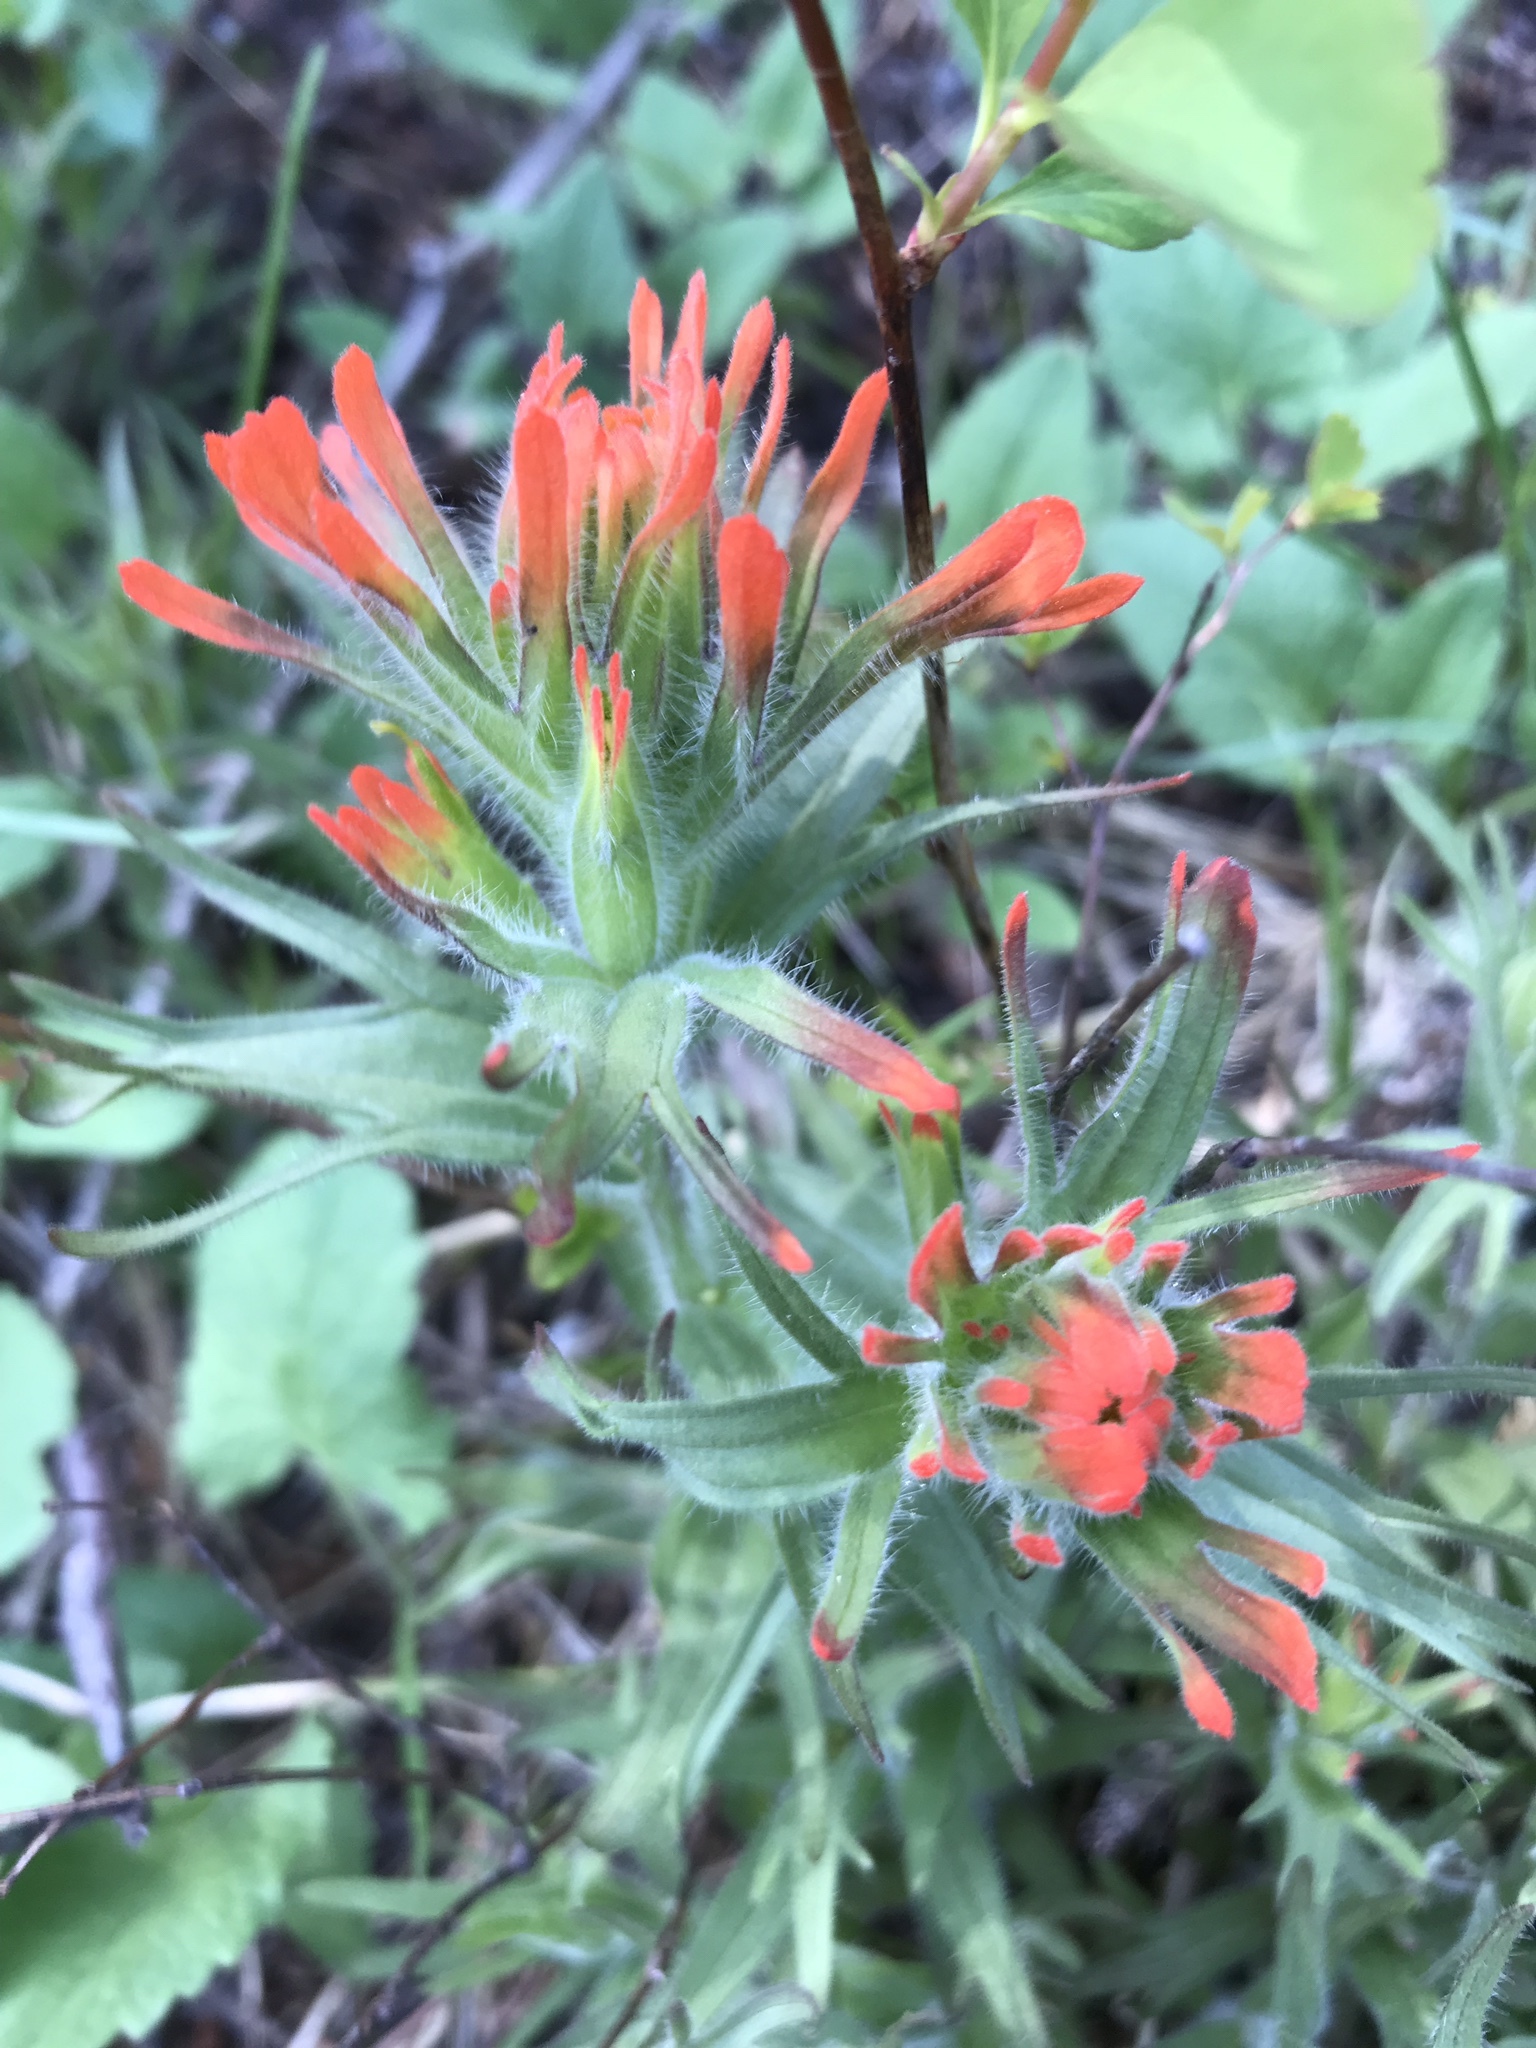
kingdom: Plantae
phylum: Tracheophyta
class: Magnoliopsida
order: Lamiales
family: Orobanchaceae
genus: Castilleja
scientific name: Castilleja hispida
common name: Bristly paintbrush
